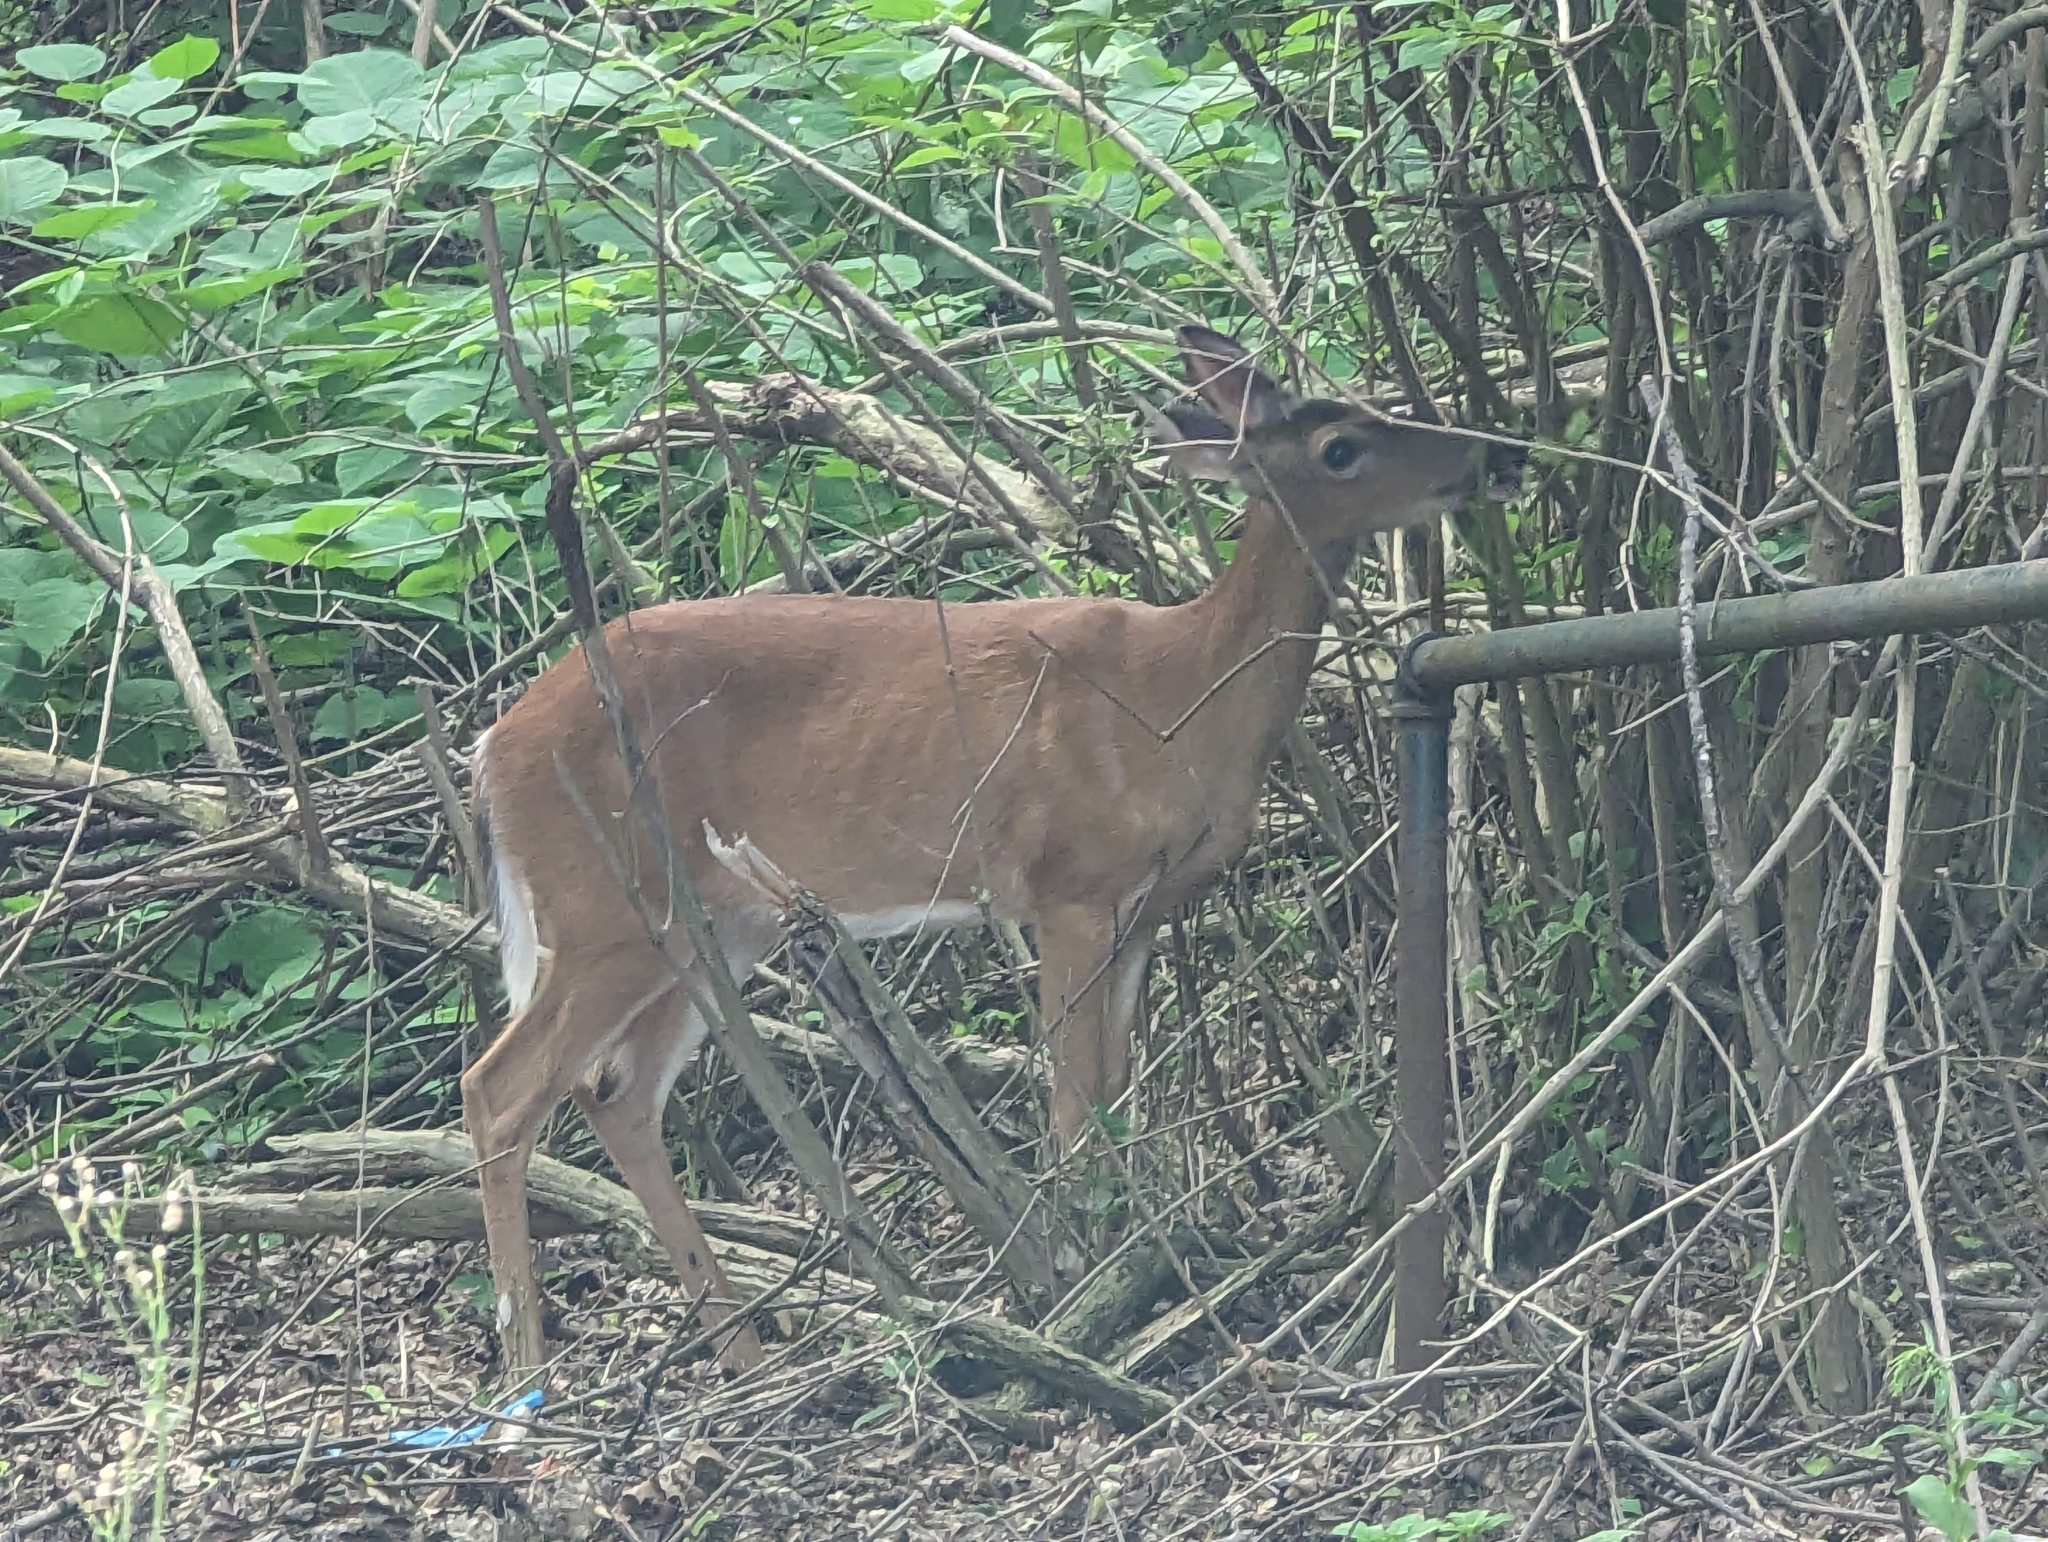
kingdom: Animalia
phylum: Chordata
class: Mammalia
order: Artiodactyla
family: Cervidae
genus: Odocoileus
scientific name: Odocoileus virginianus
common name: White-tailed deer
